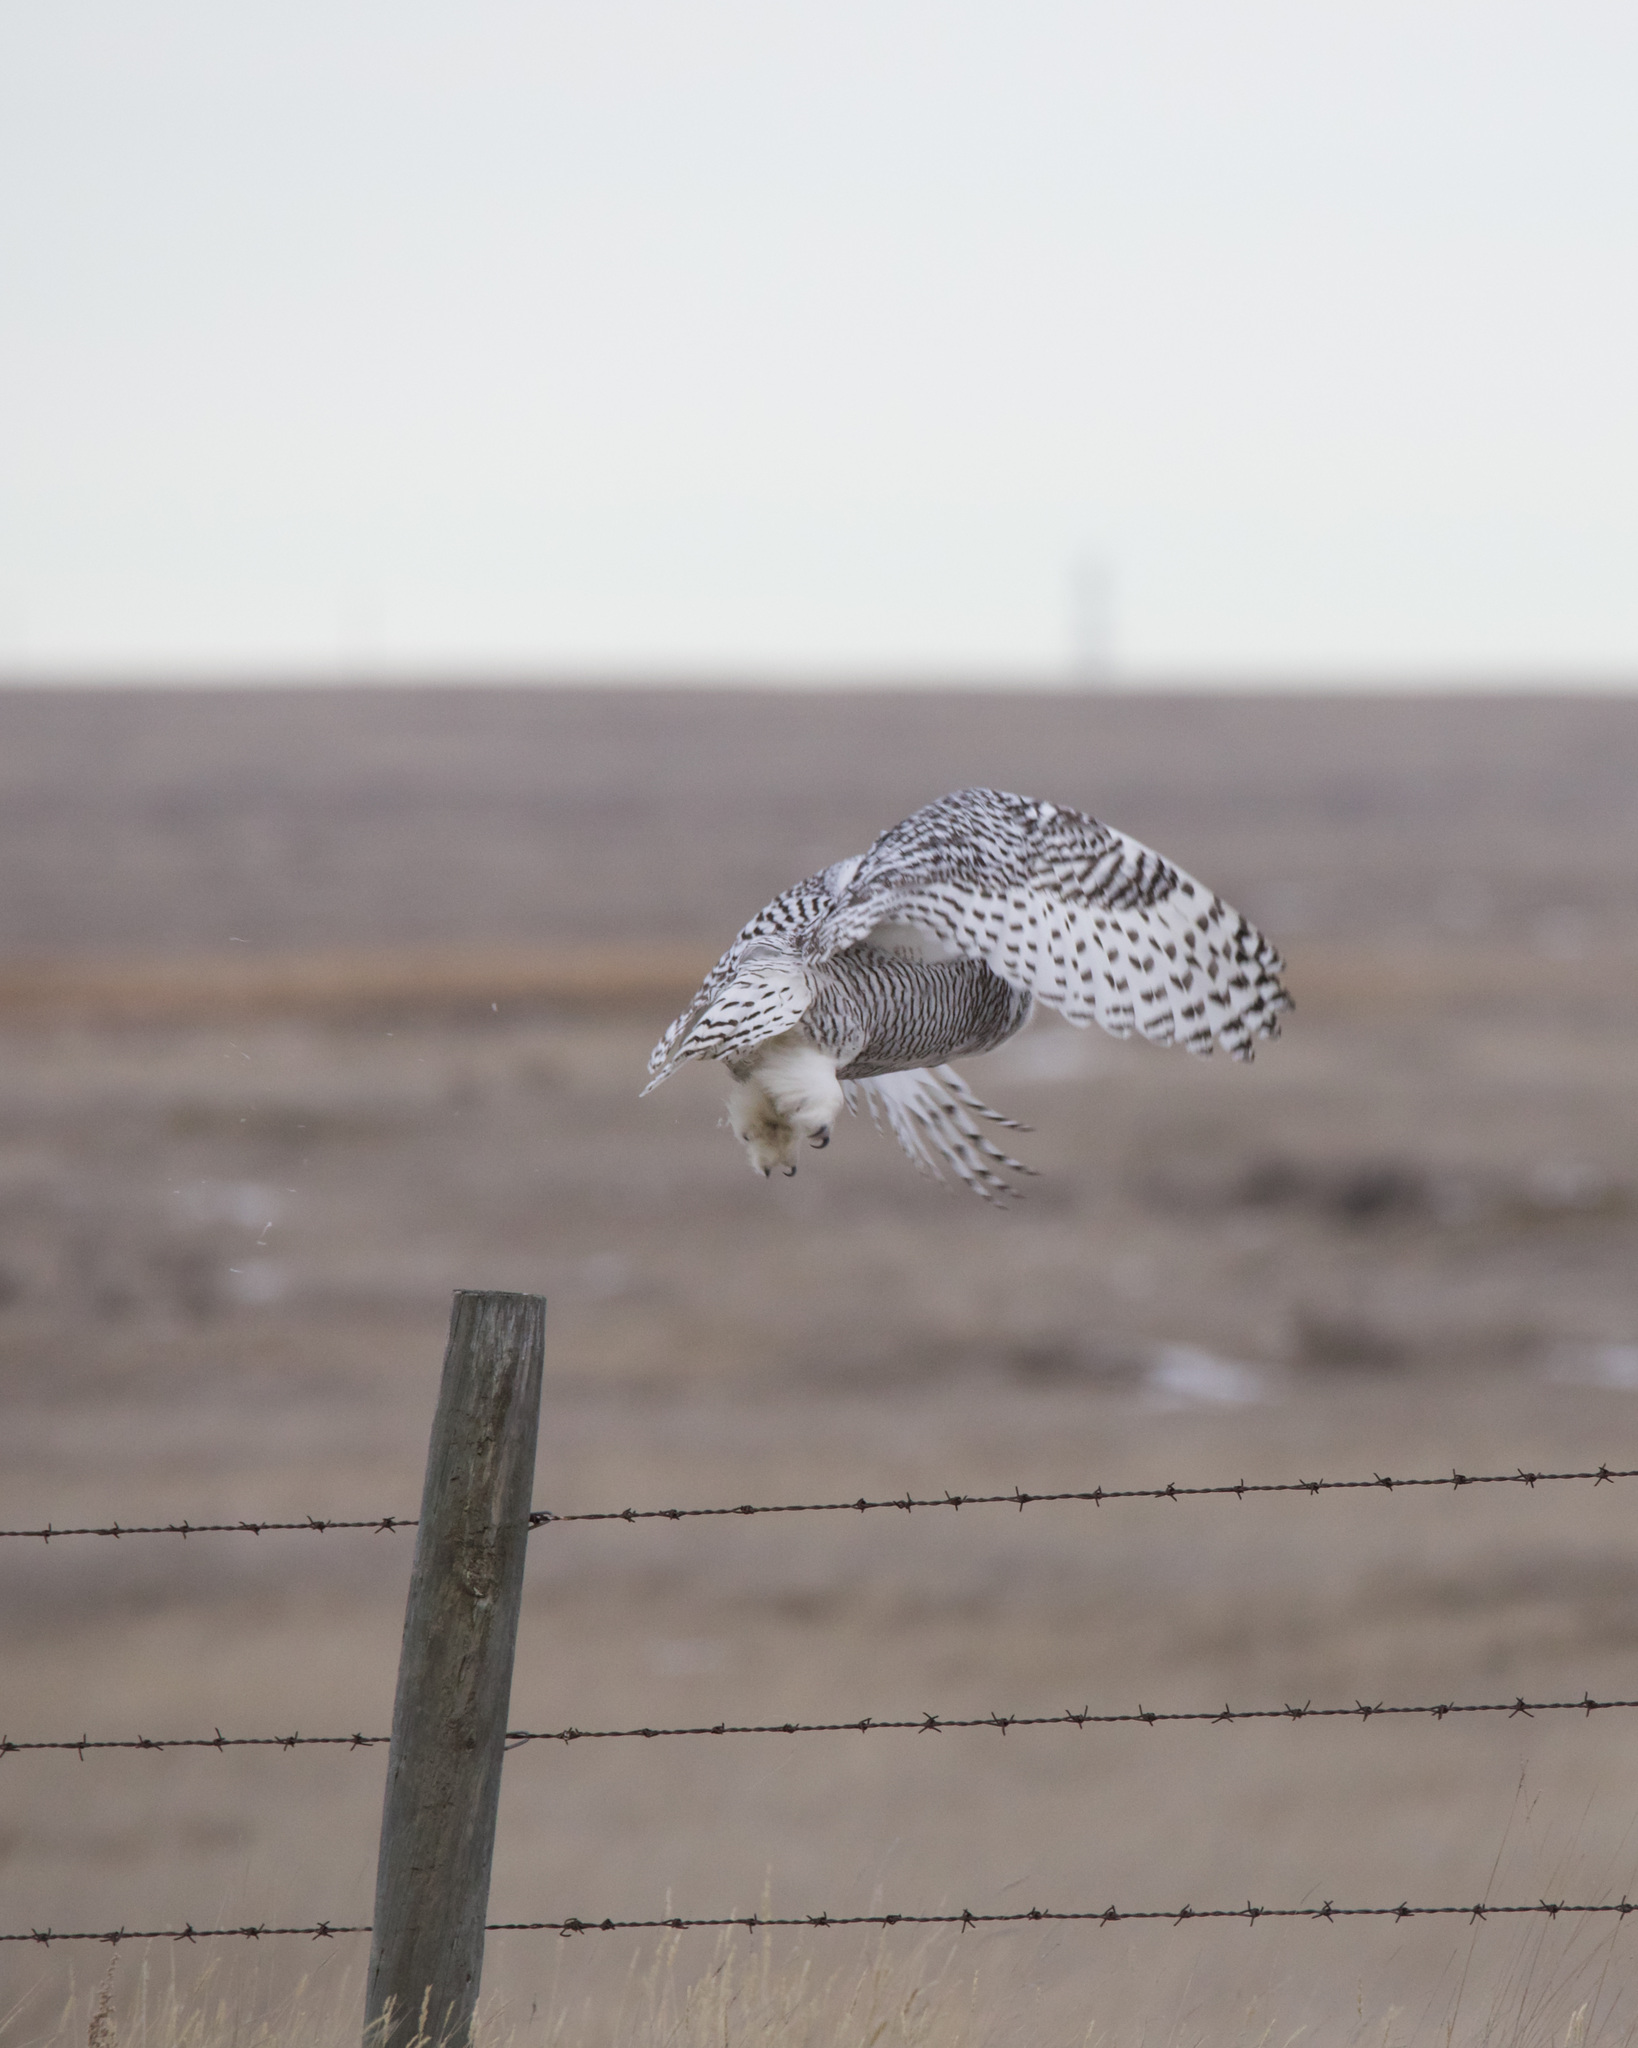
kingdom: Animalia
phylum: Chordata
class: Aves
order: Strigiformes
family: Strigidae
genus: Bubo
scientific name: Bubo scandiacus
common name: Snowy owl
